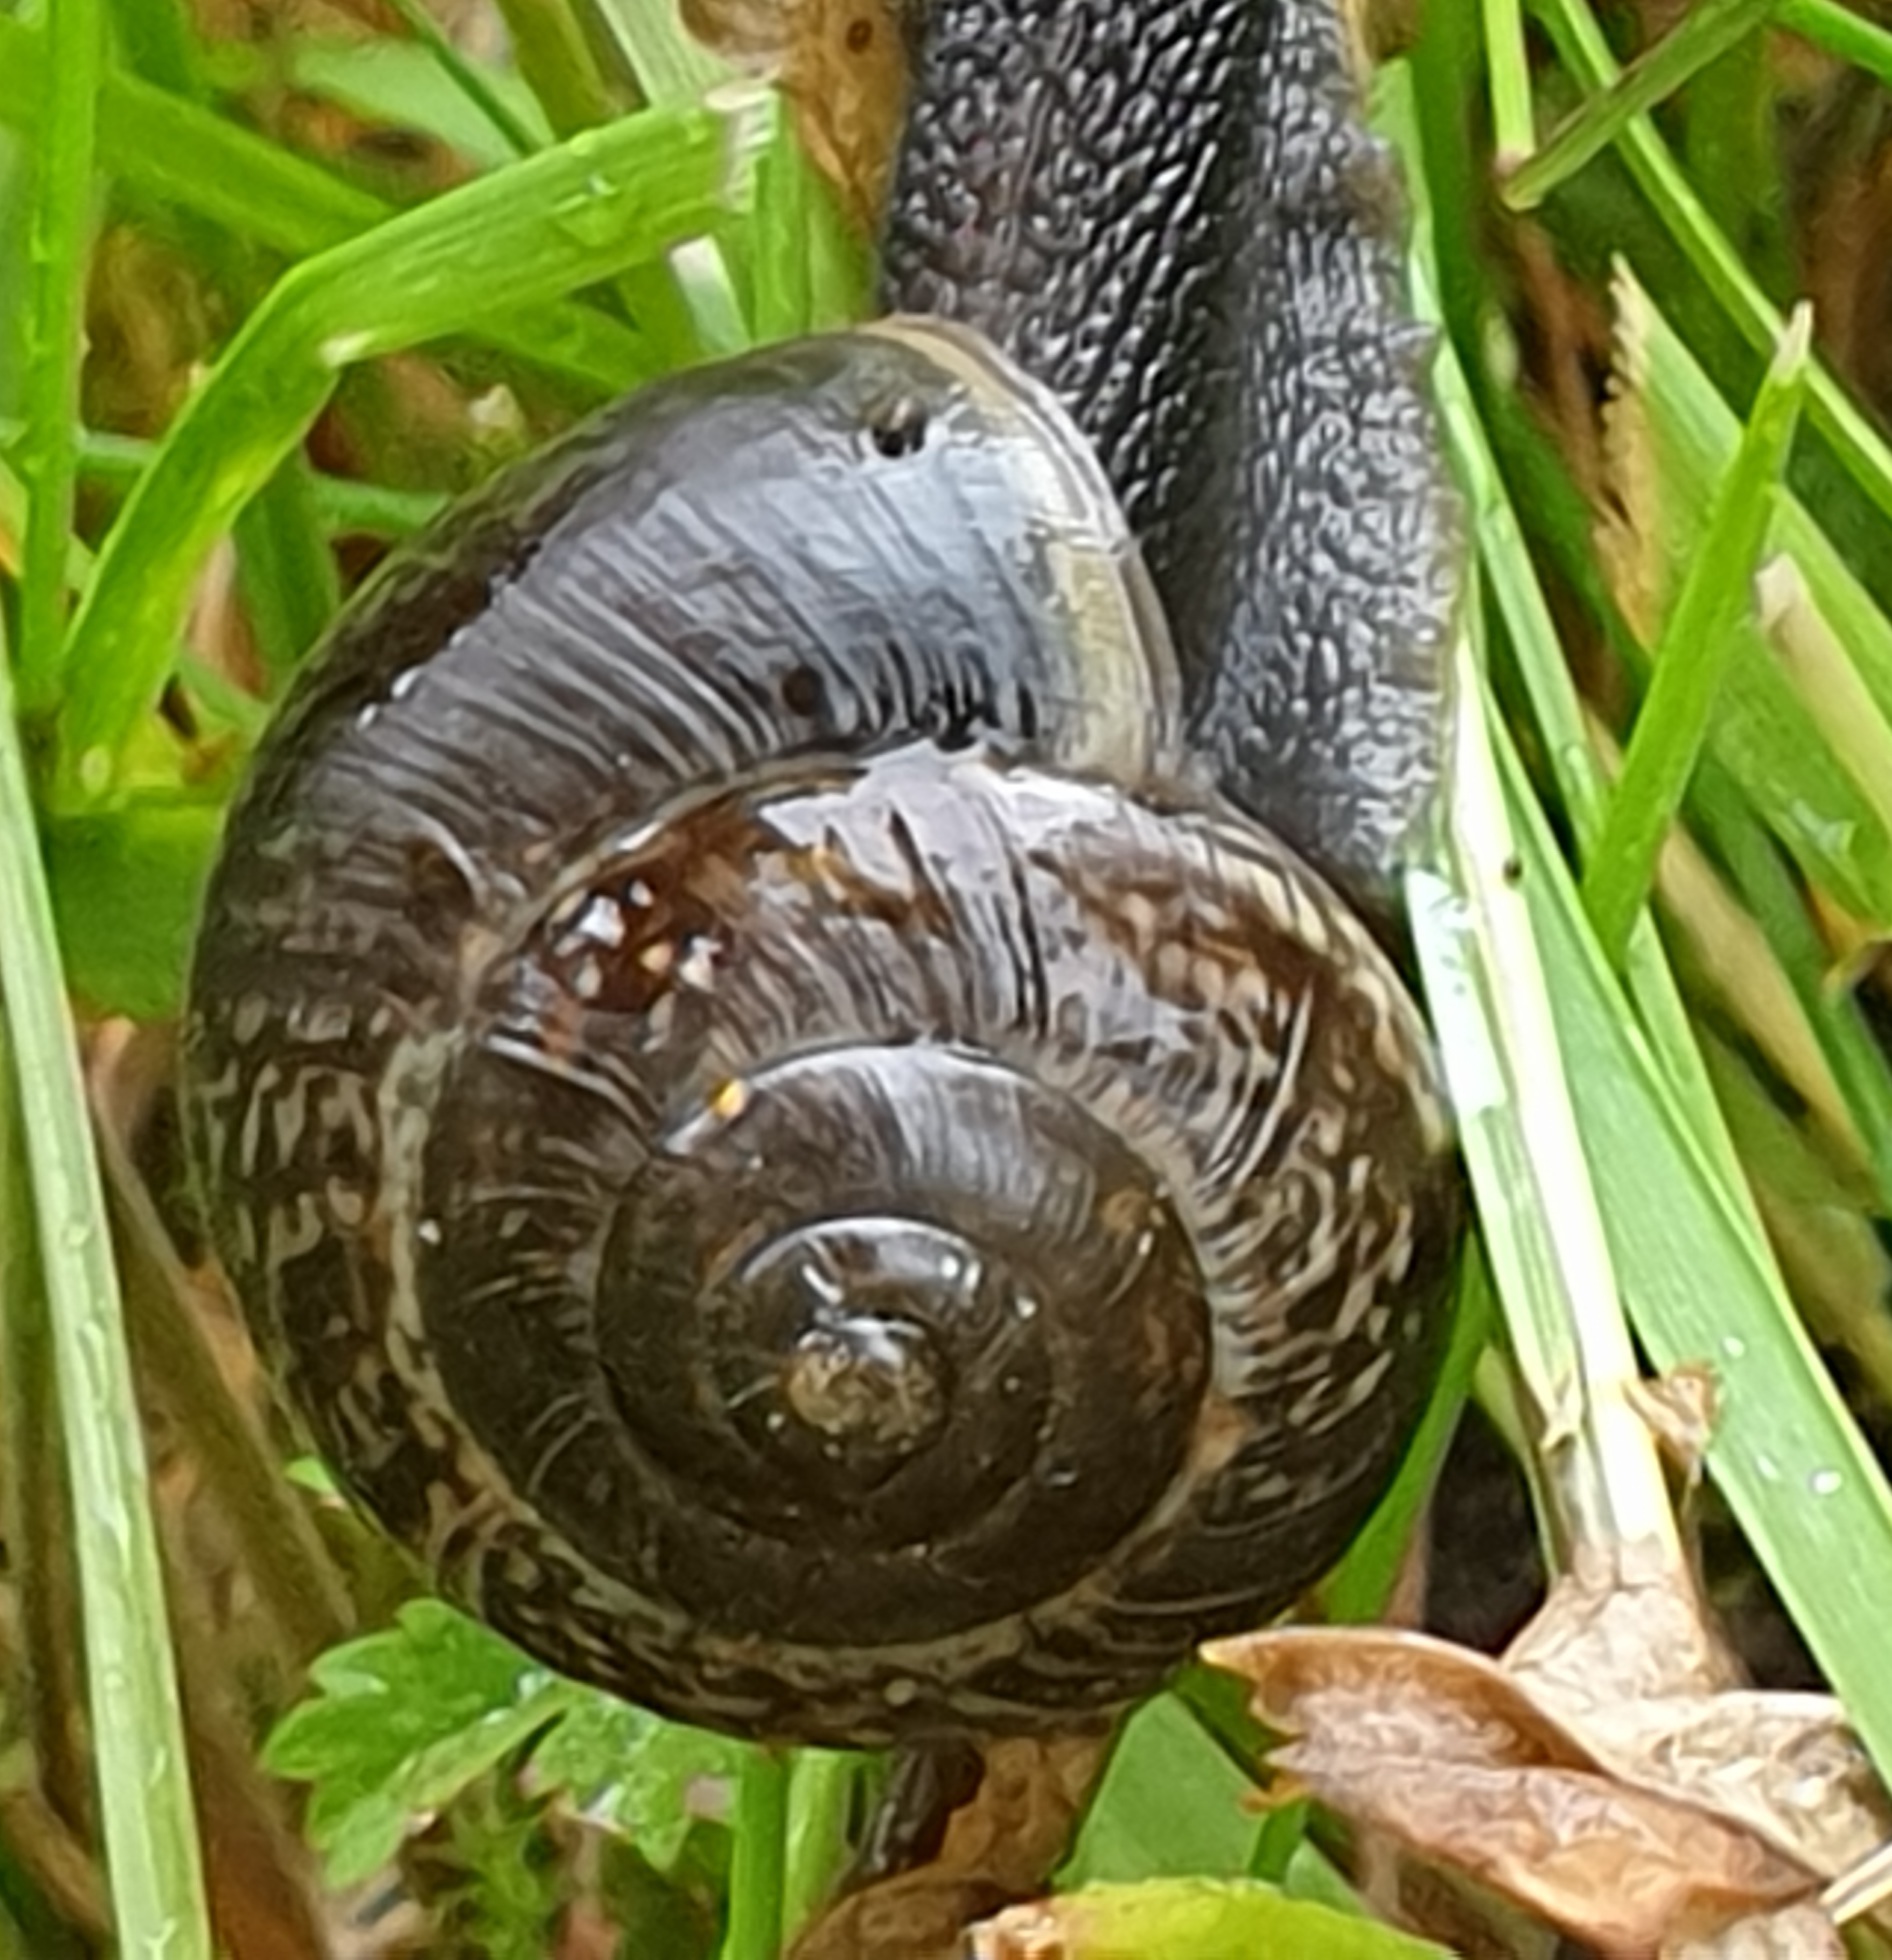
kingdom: Animalia
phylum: Mollusca
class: Gastropoda
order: Stylommatophora
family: Helicidae
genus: Arianta
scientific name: Arianta arbustorum
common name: Copse snail
